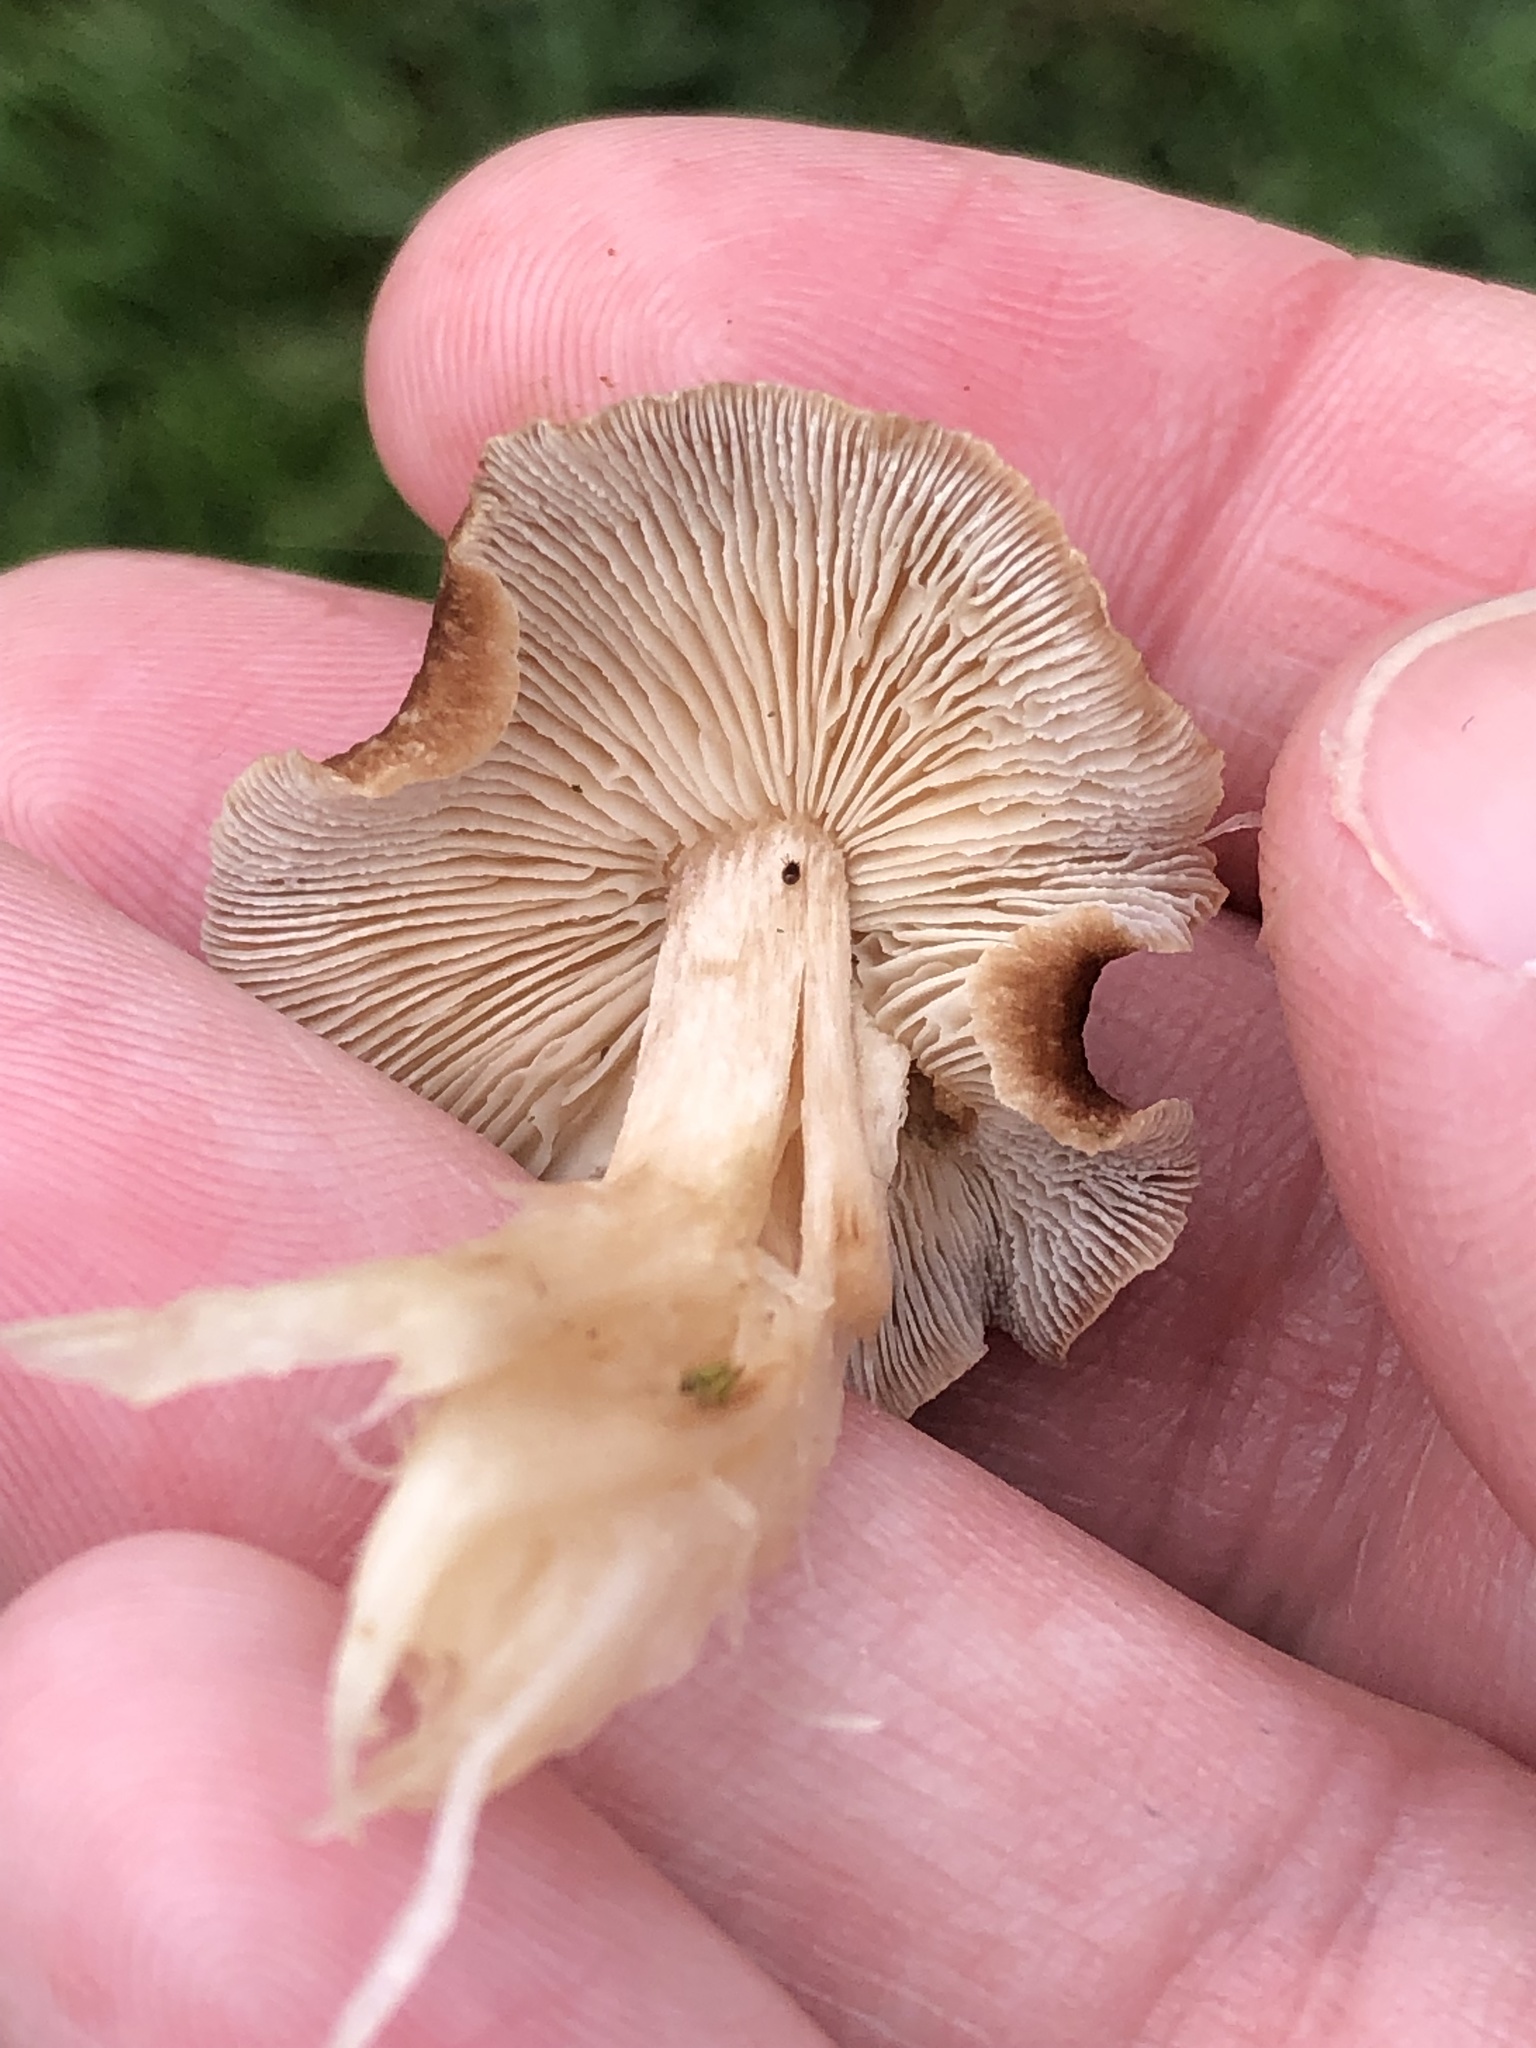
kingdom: Fungi
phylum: Basidiomycota
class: Agaricomycetes
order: Agaricales
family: Omphalotaceae
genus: Collybiopsis
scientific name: Collybiopsis luxurians
